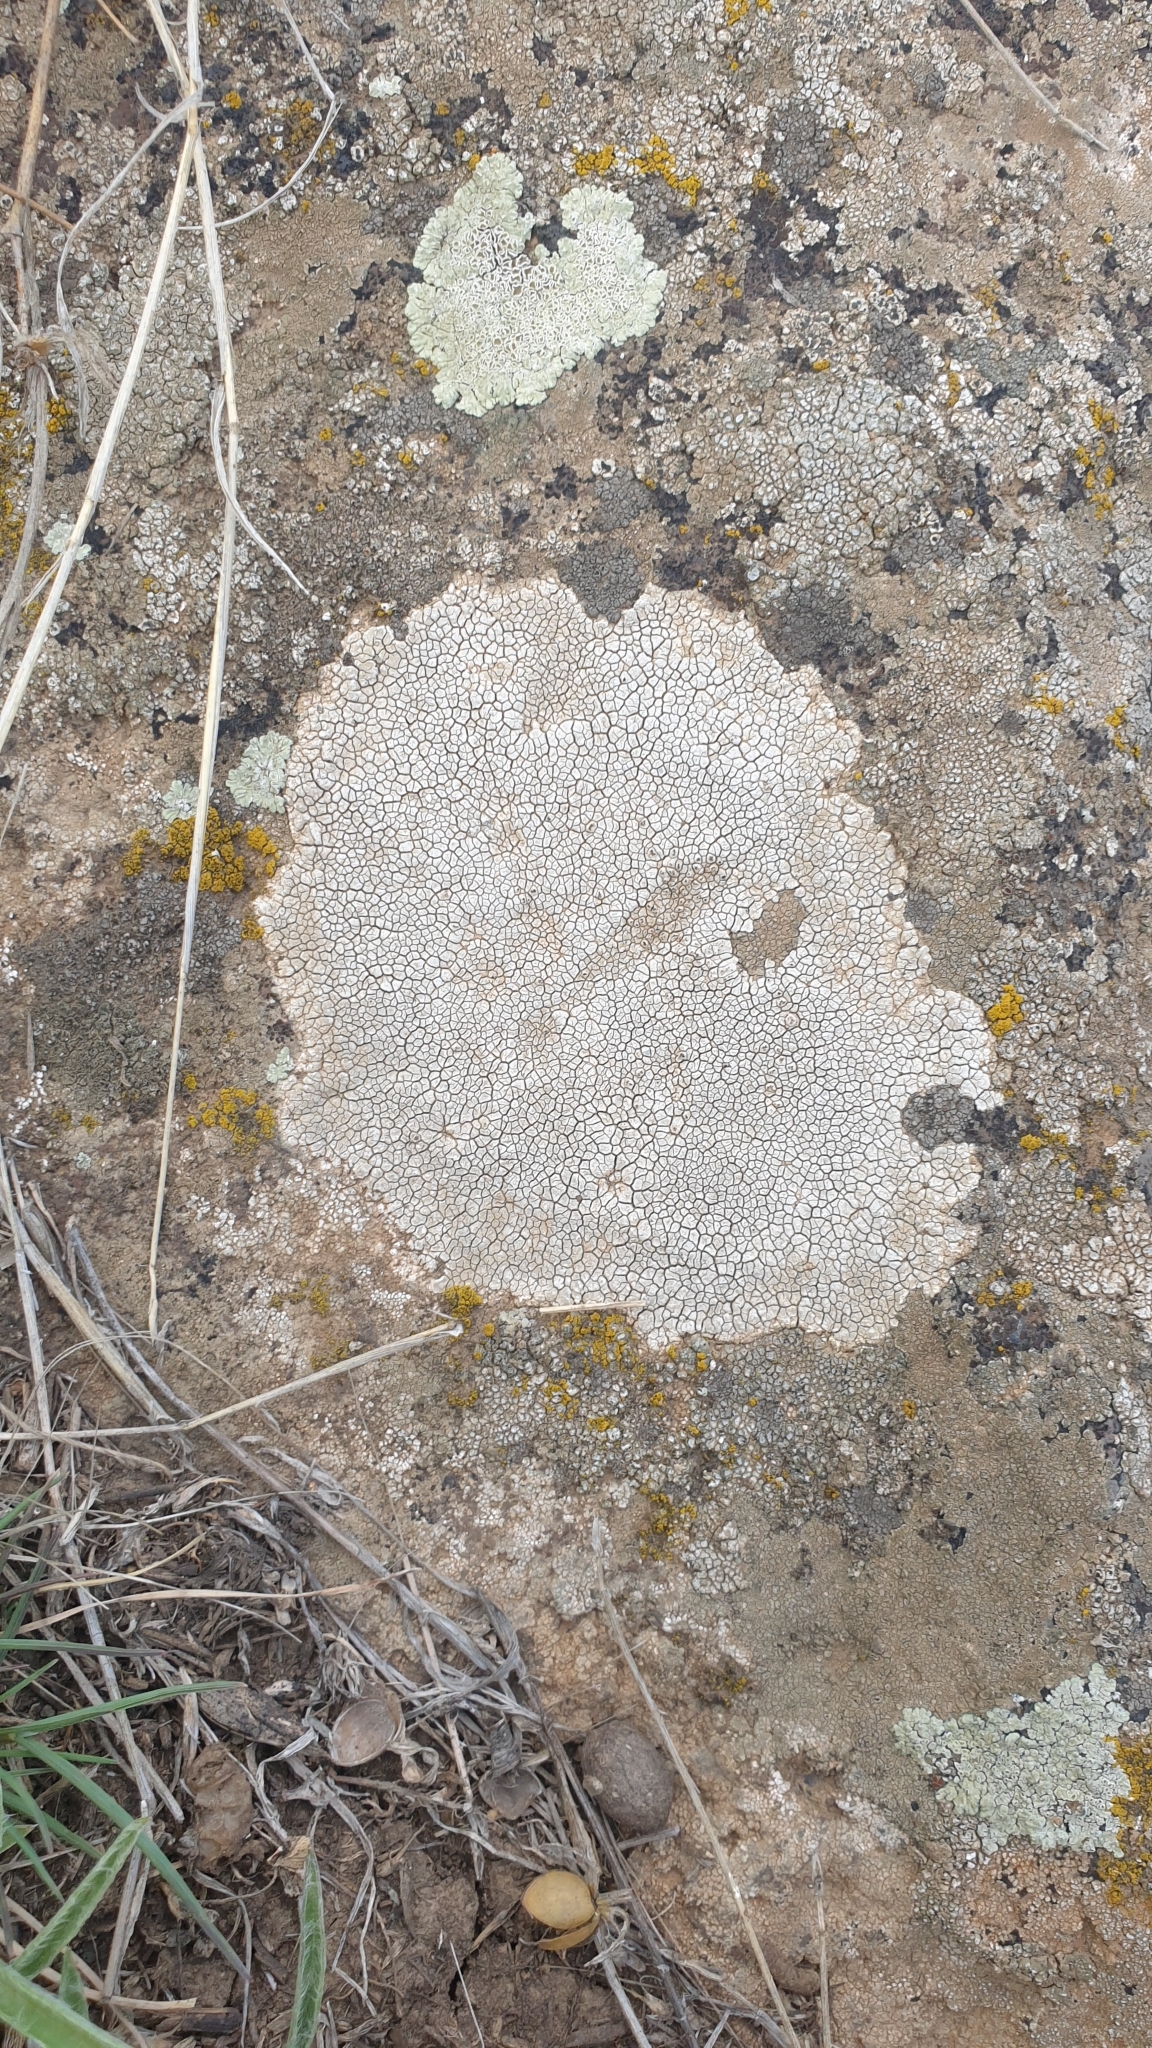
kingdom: Fungi
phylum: Ascomycota
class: Lecanoromycetes
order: Pertusariales
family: Megasporaceae
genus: Aspiciliella
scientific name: Aspiciliella intermutans
